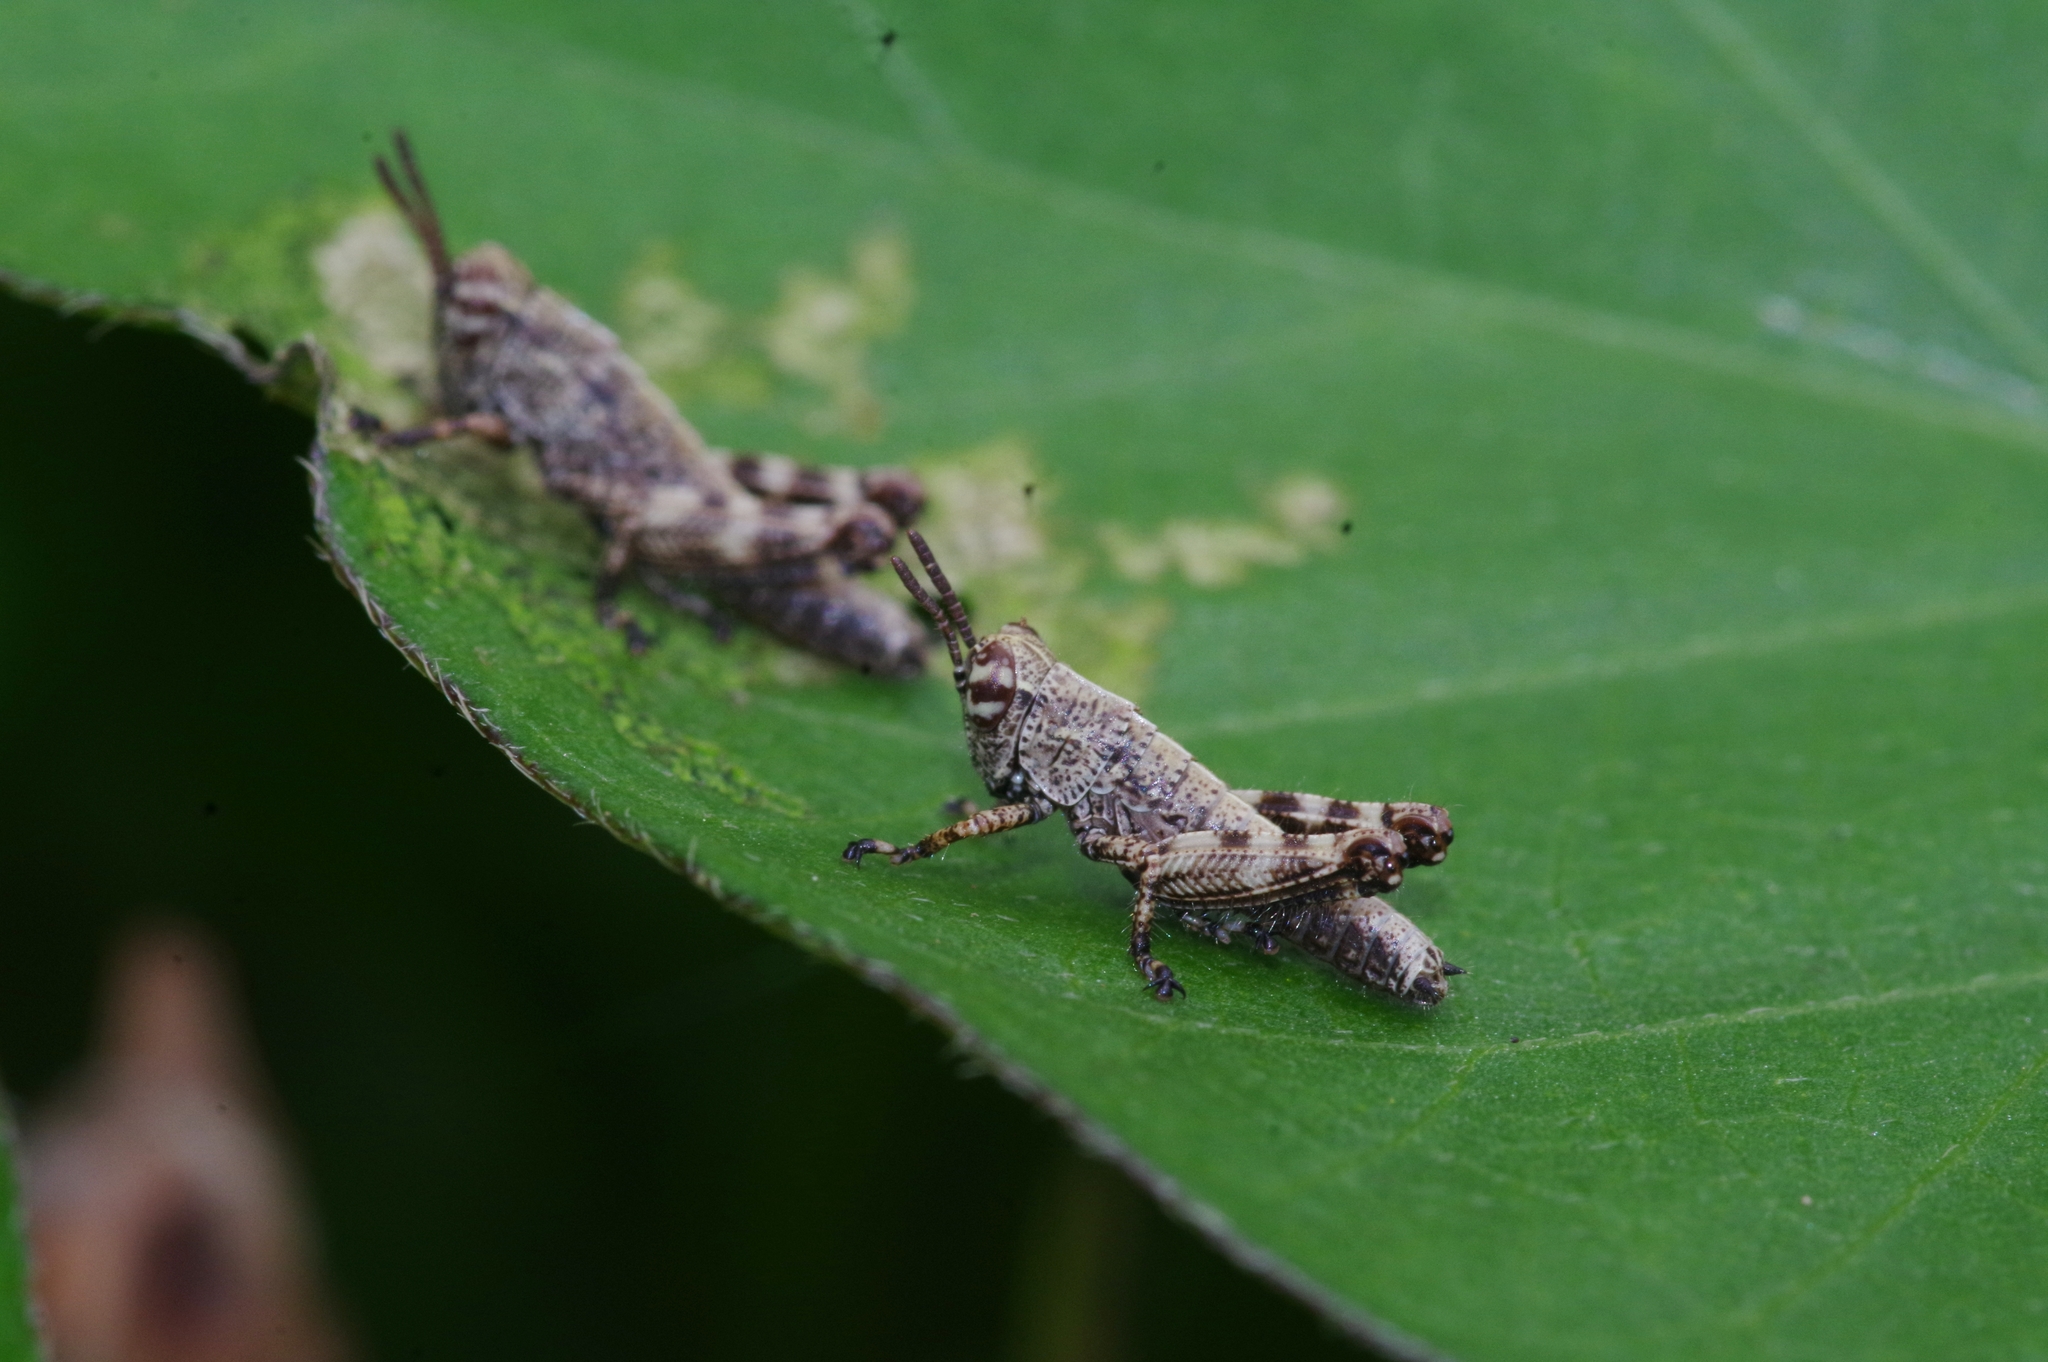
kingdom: Animalia
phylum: Arthropoda
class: Insecta
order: Orthoptera
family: Acrididae
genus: Fruhstorferiola
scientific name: Fruhstorferiola okinawaensis
